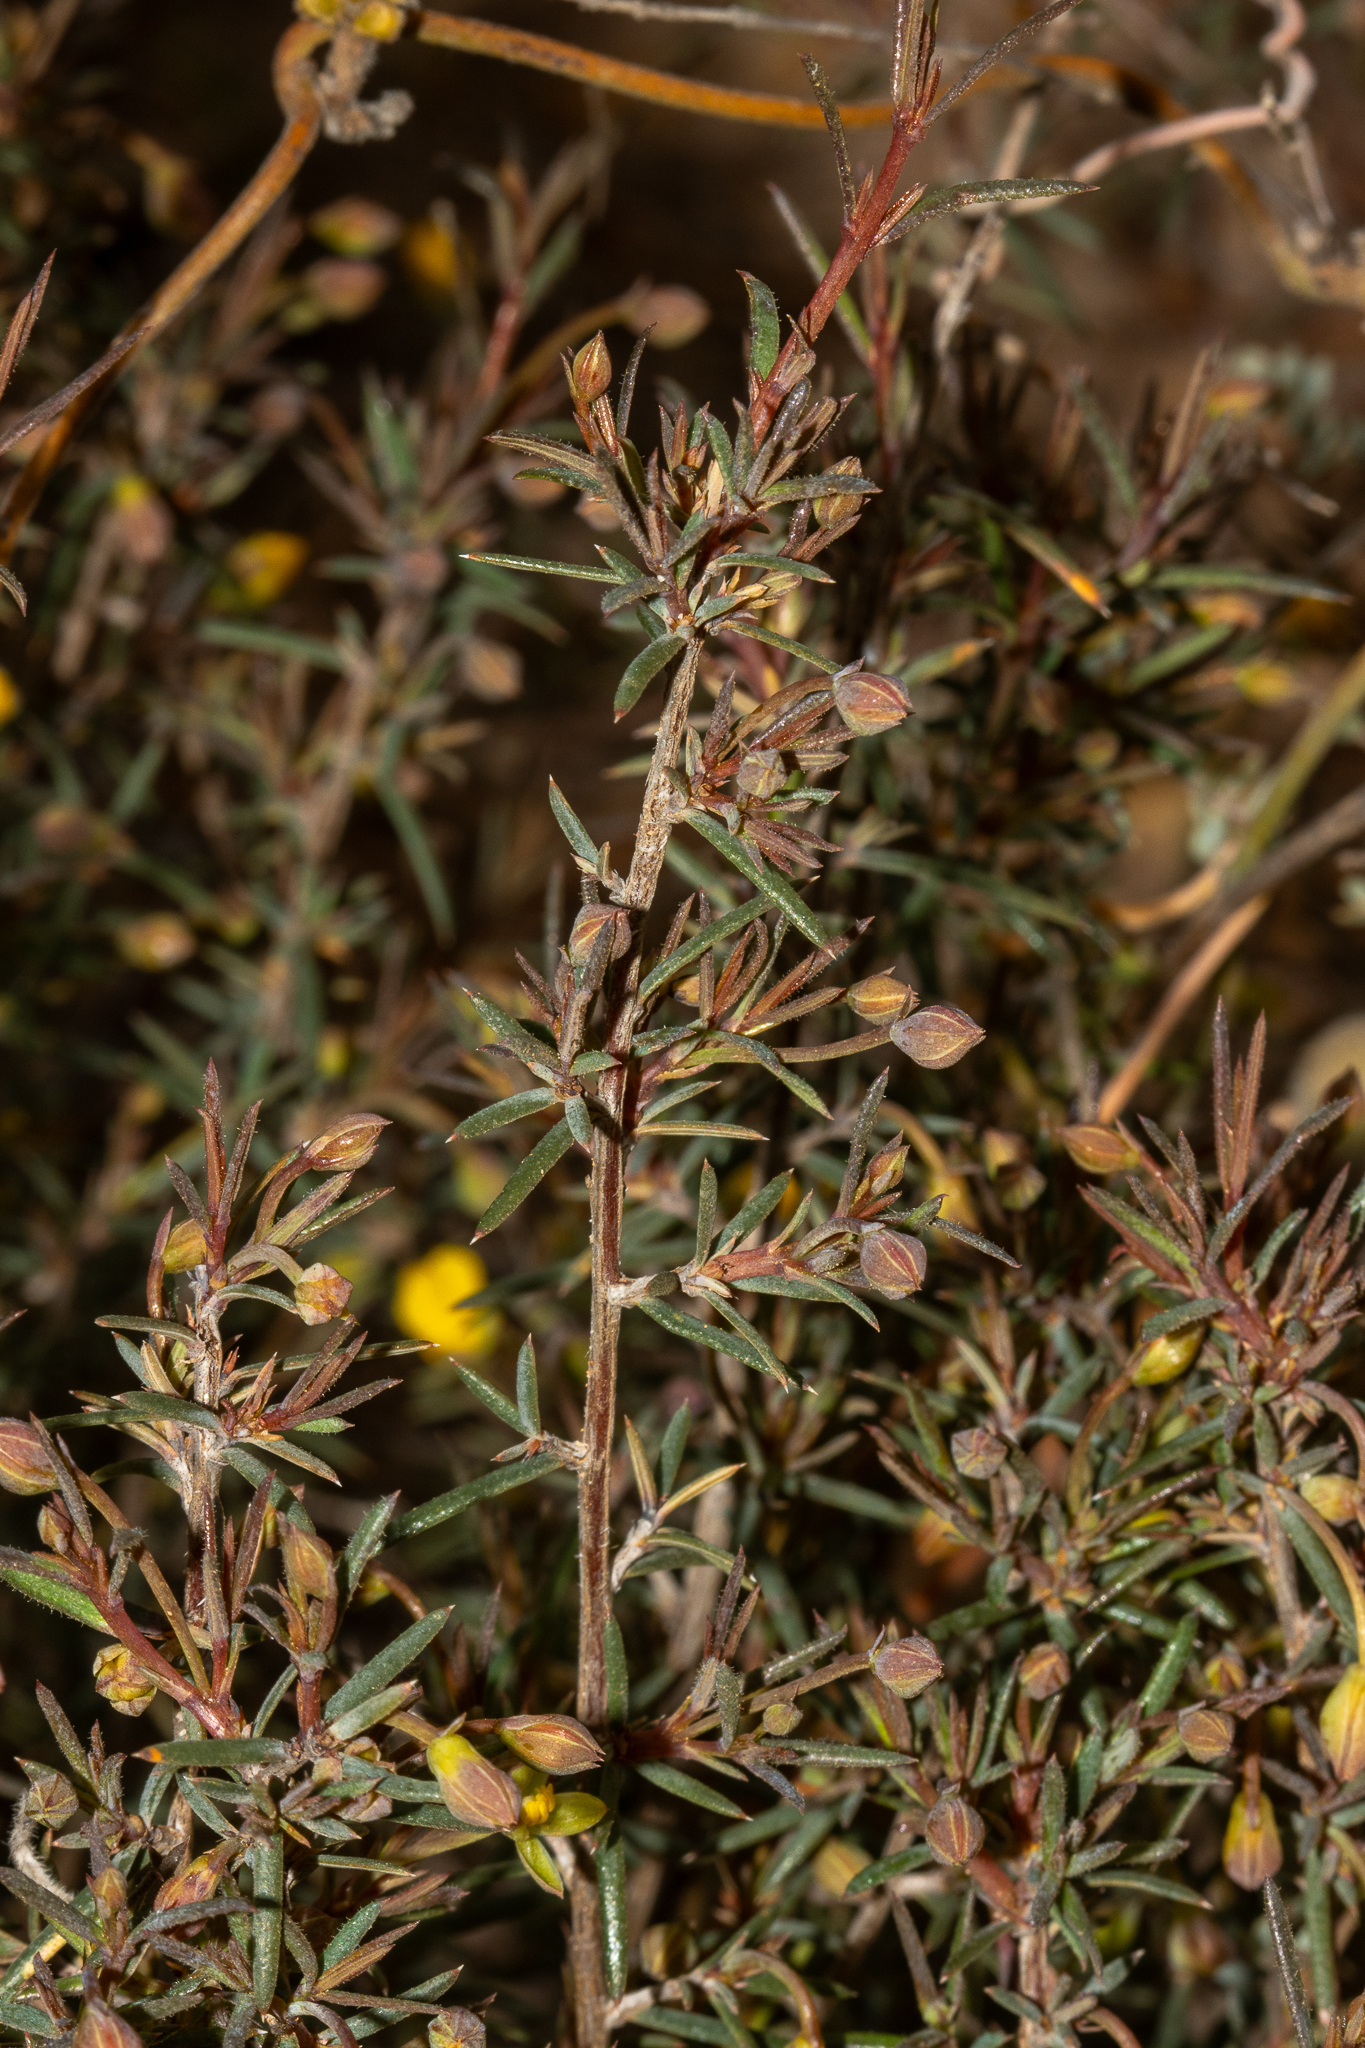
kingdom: Plantae
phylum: Tracheophyta
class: Magnoliopsida
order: Dilleniales
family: Dilleniaceae
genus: Hibbertia
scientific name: Hibbertia
